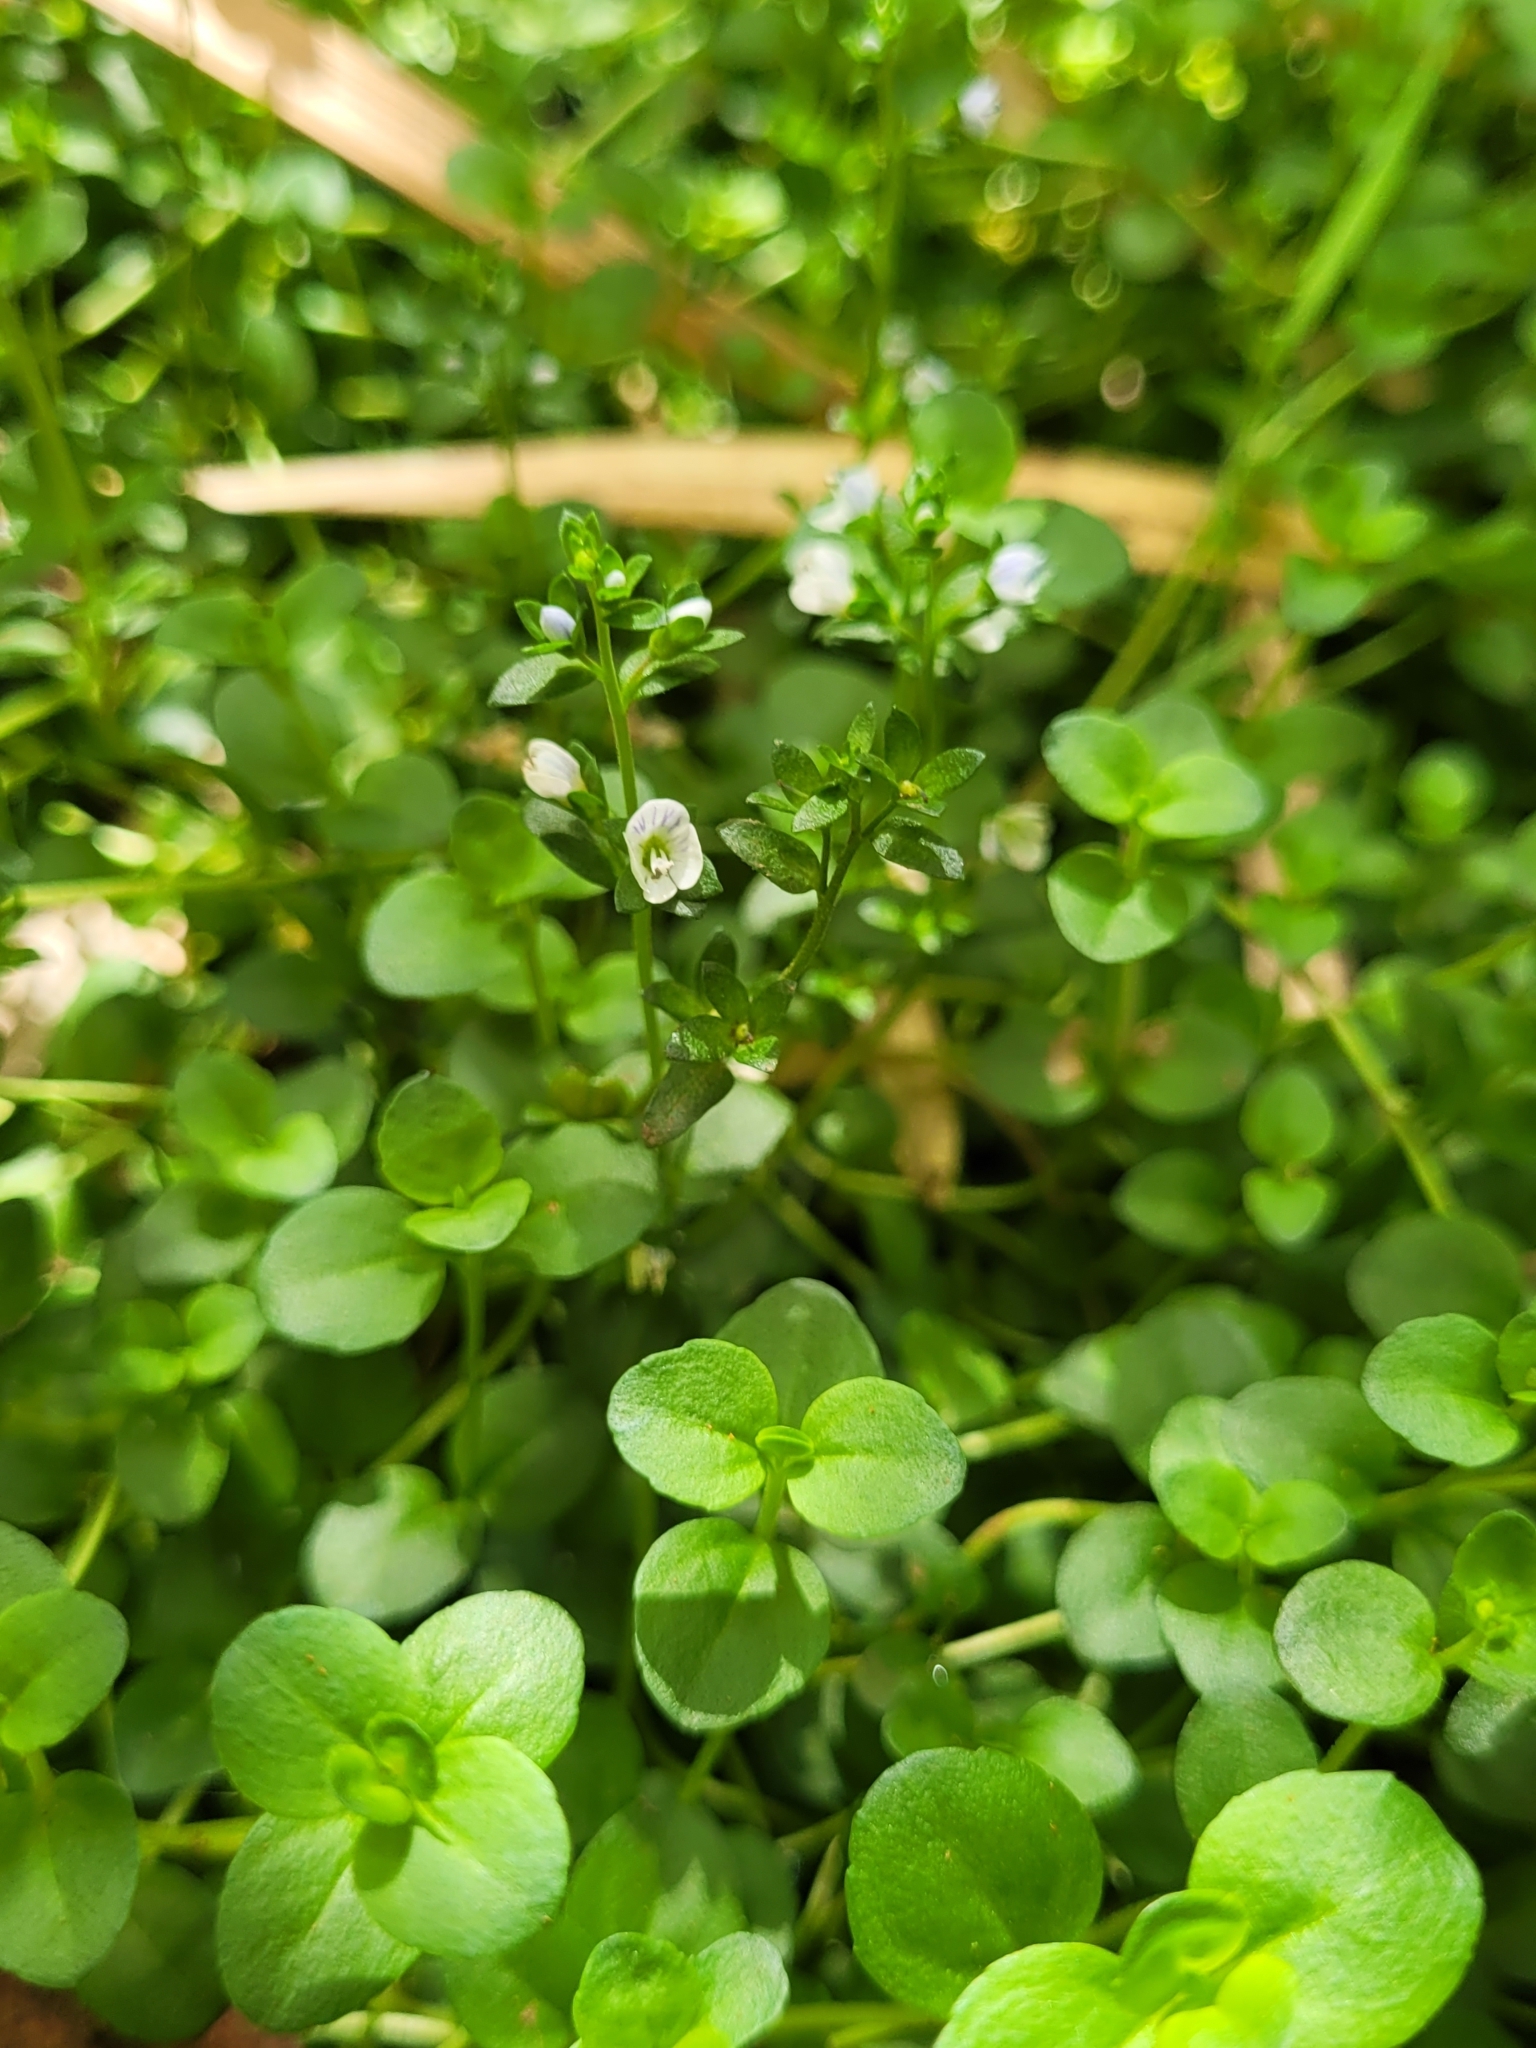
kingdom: Plantae
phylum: Tracheophyta
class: Magnoliopsida
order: Lamiales
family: Plantaginaceae
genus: Veronica
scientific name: Veronica serpyllifolia
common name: Thyme-leaved speedwell
